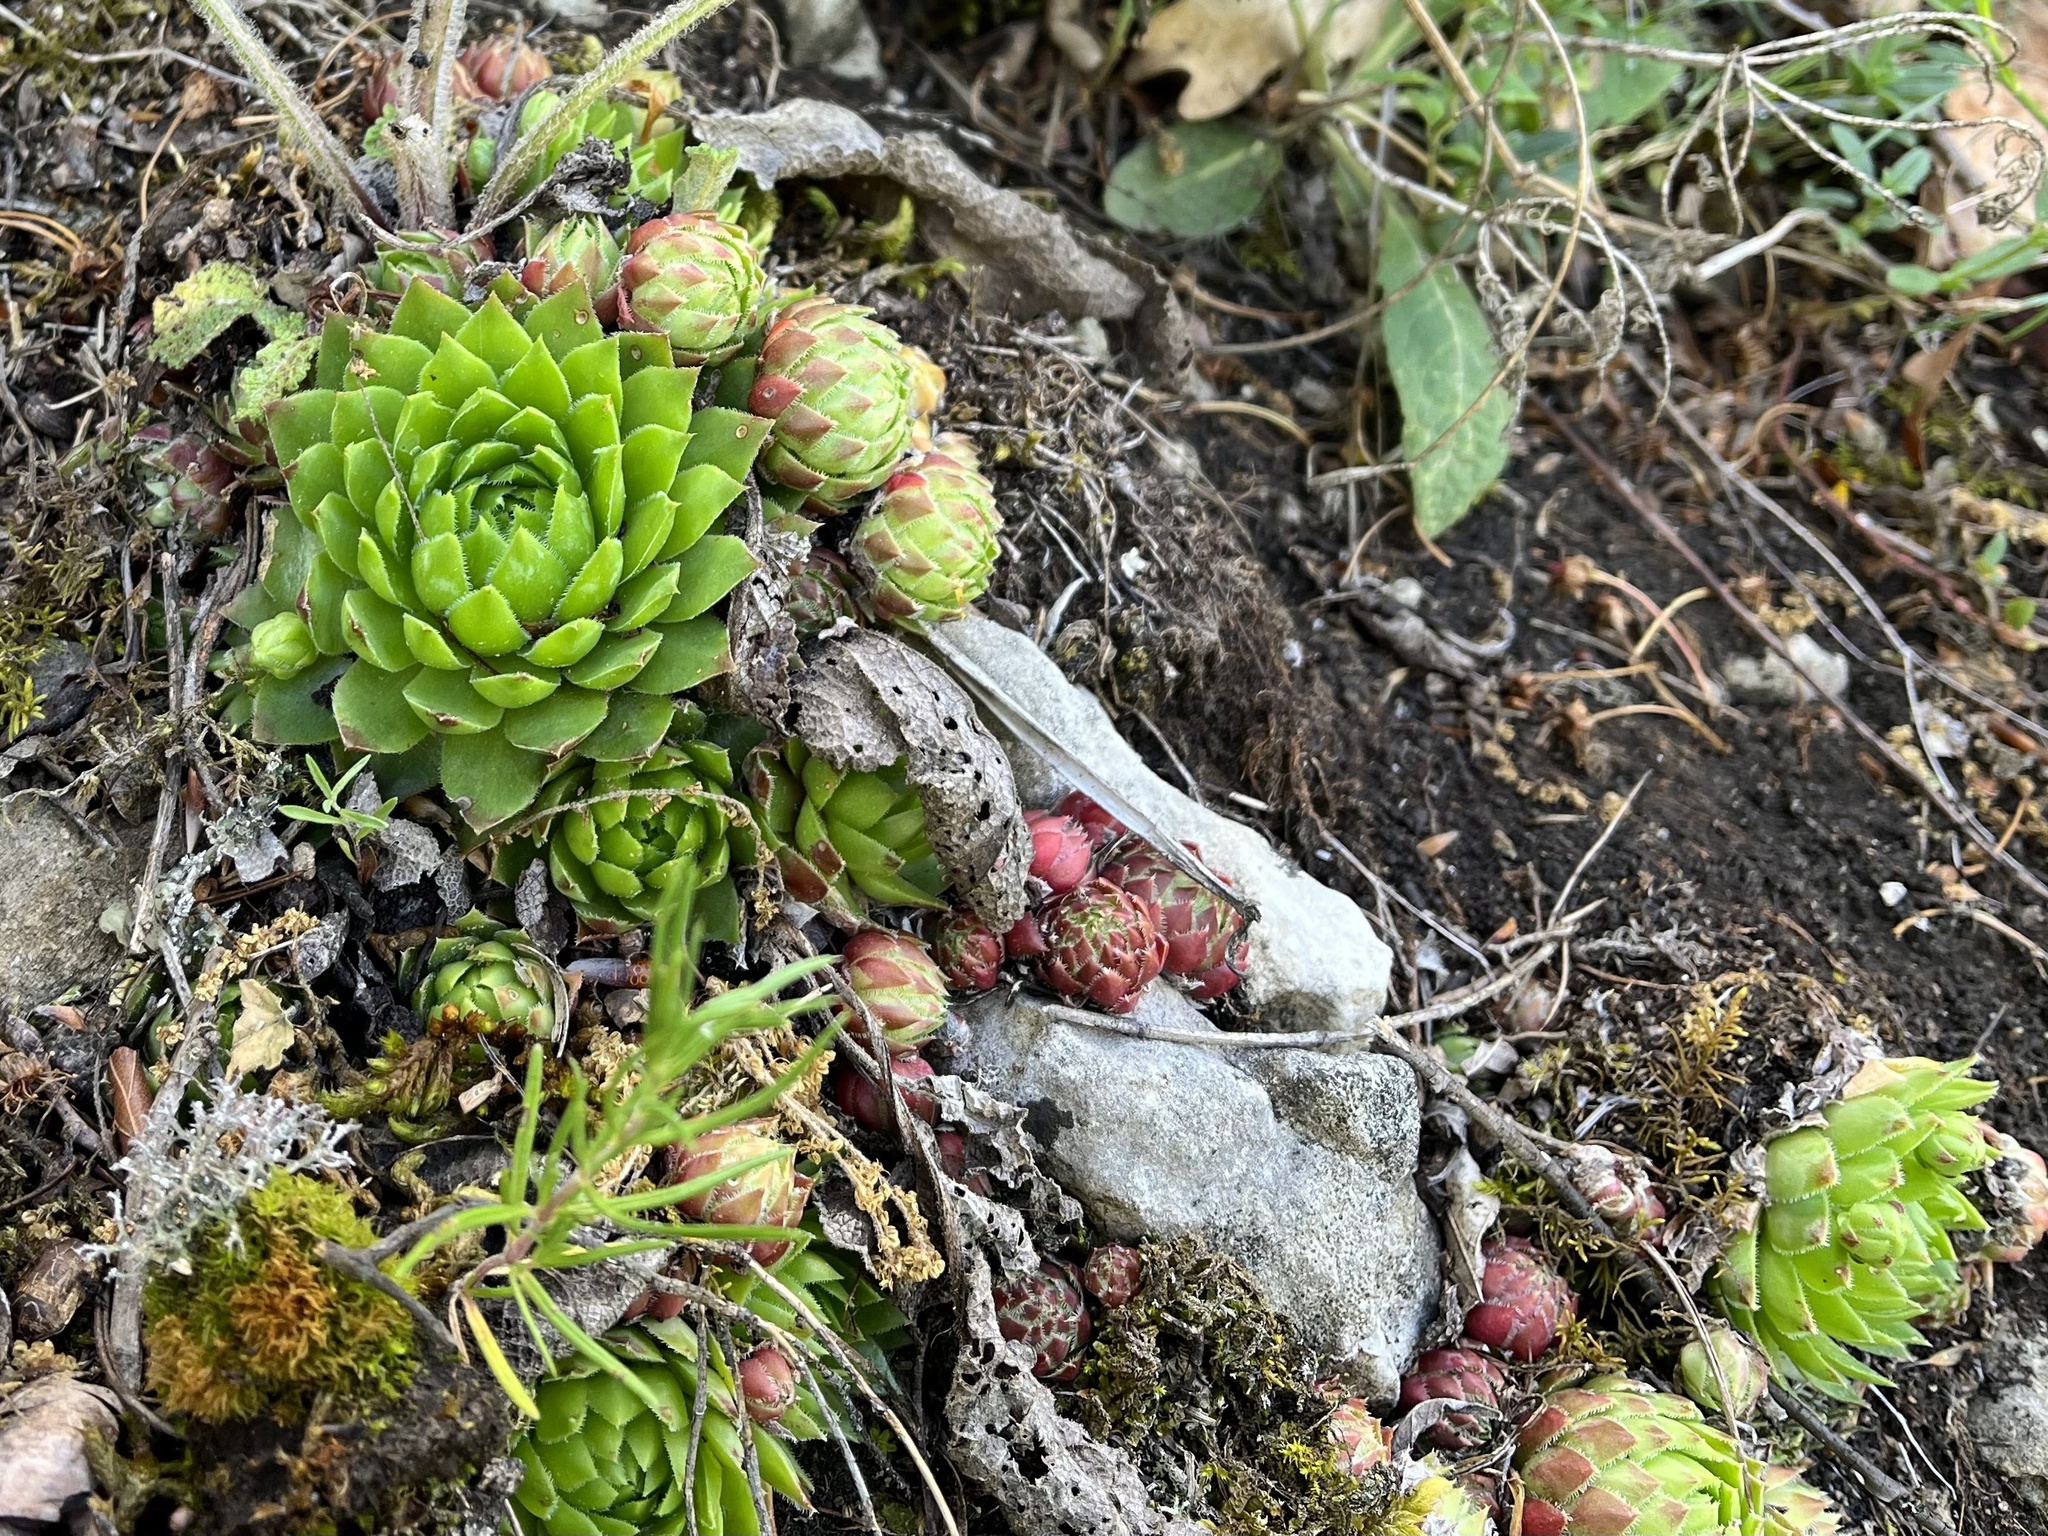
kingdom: Plantae
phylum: Tracheophyta
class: Magnoliopsida
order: Saxifragales
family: Crassulaceae
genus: Sempervivum
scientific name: Sempervivum globiferum
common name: Rolling hen-and-chicks
